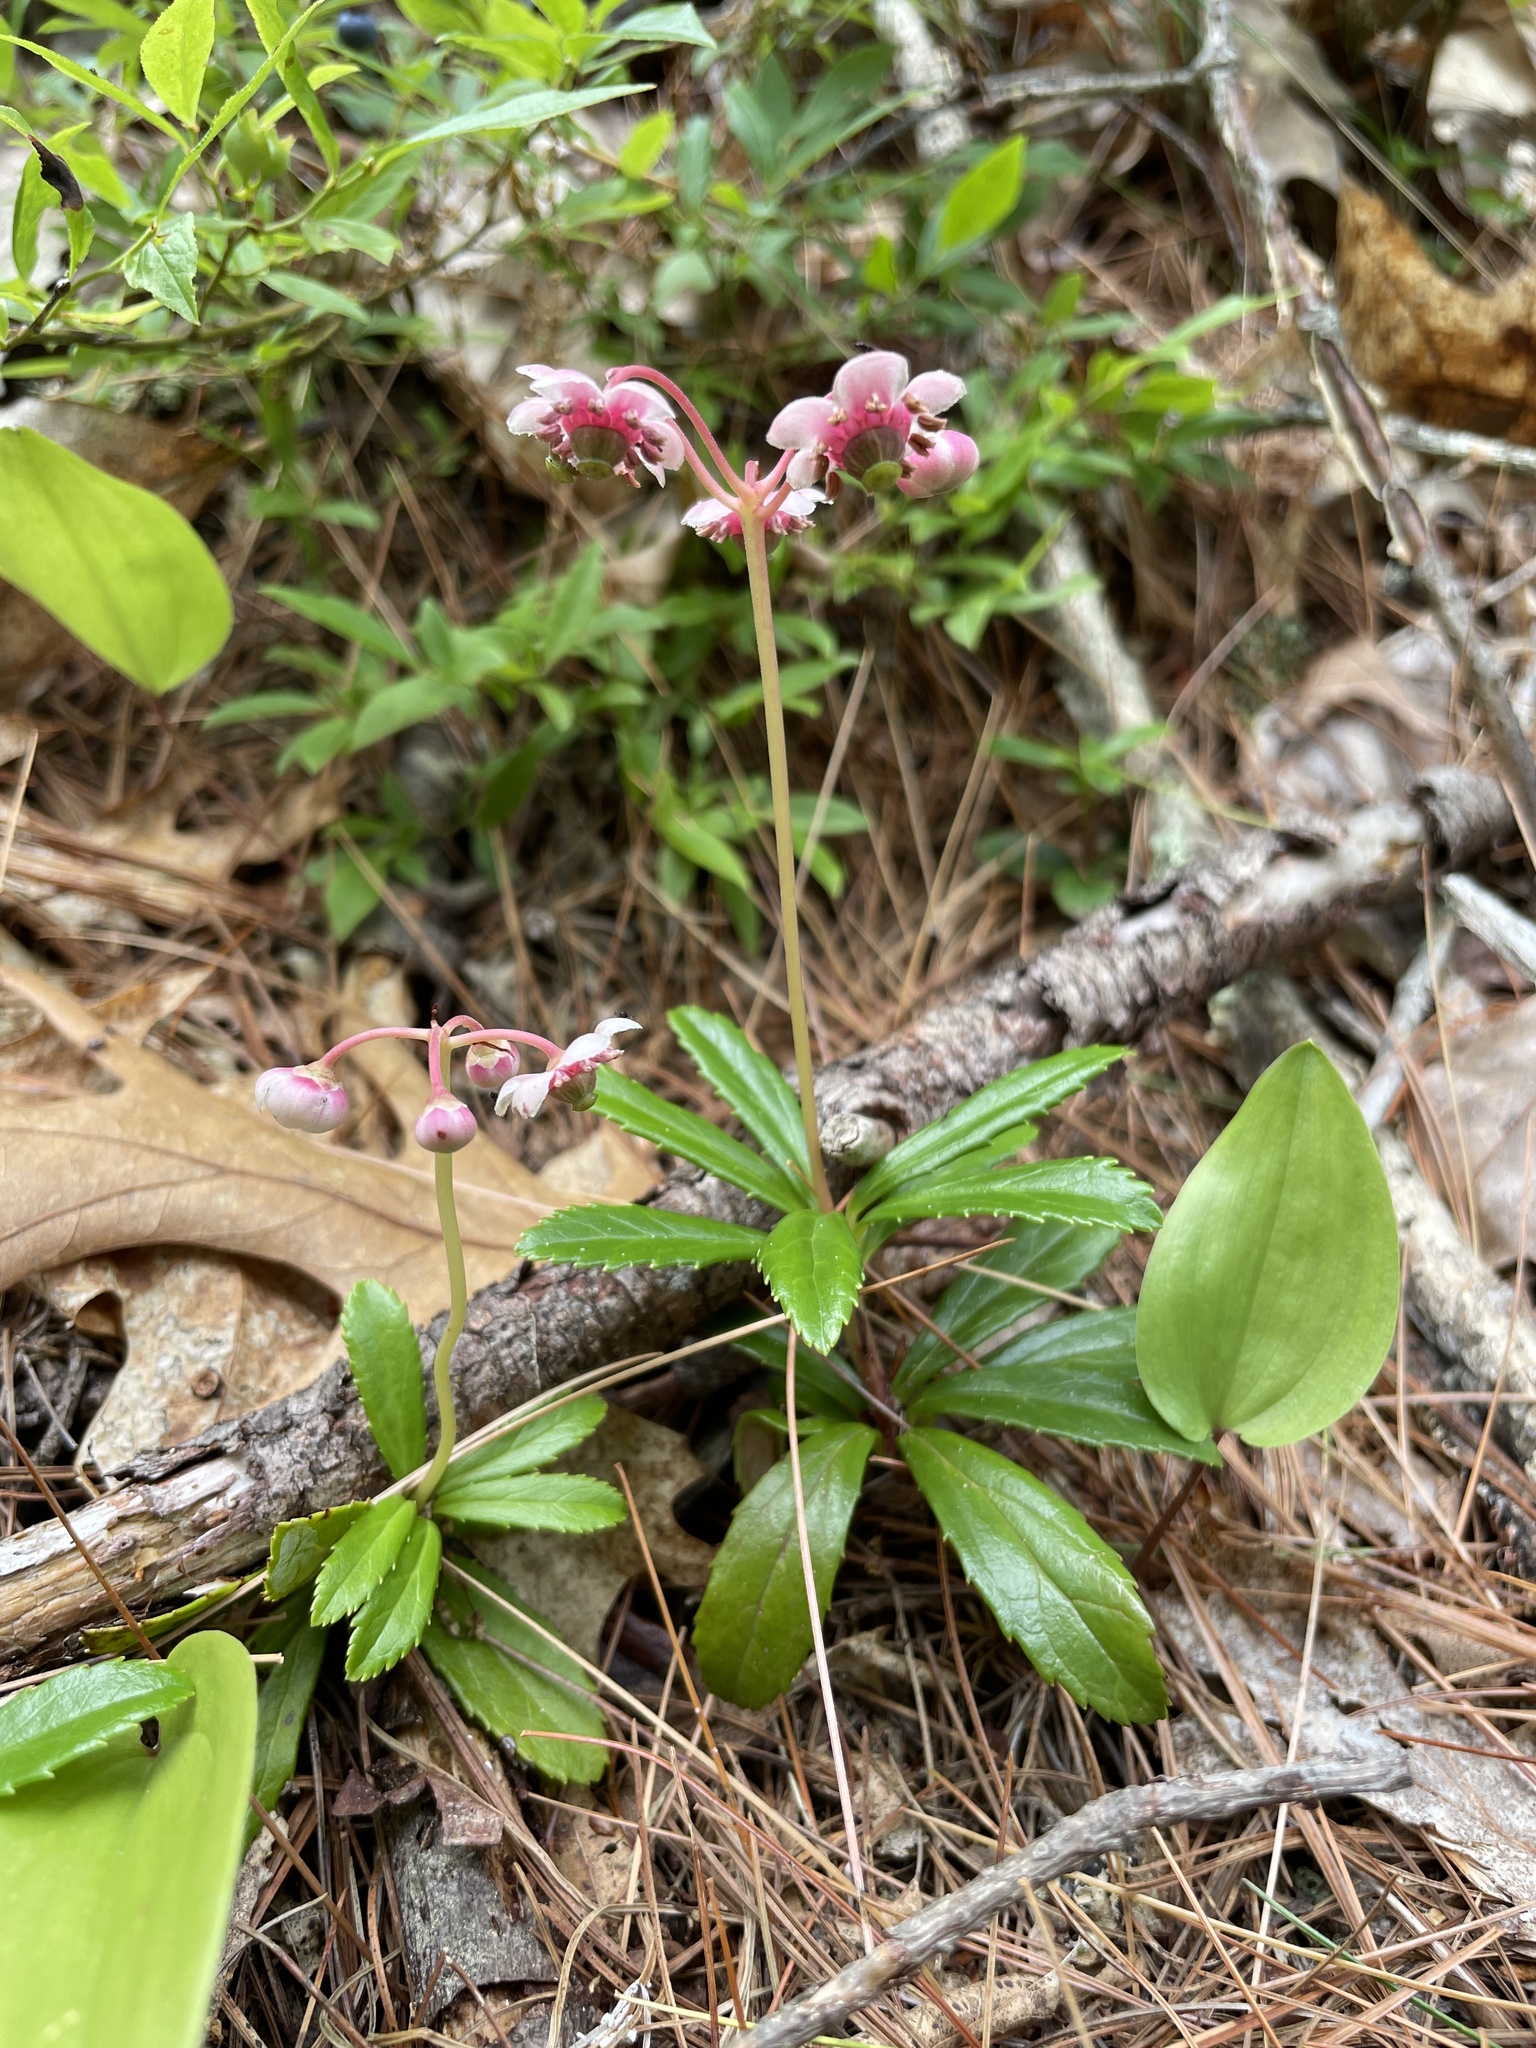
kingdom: Plantae
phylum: Tracheophyta
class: Magnoliopsida
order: Ericales
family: Ericaceae
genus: Chimaphila
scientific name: Chimaphila umbellata
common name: Pipsissewa
